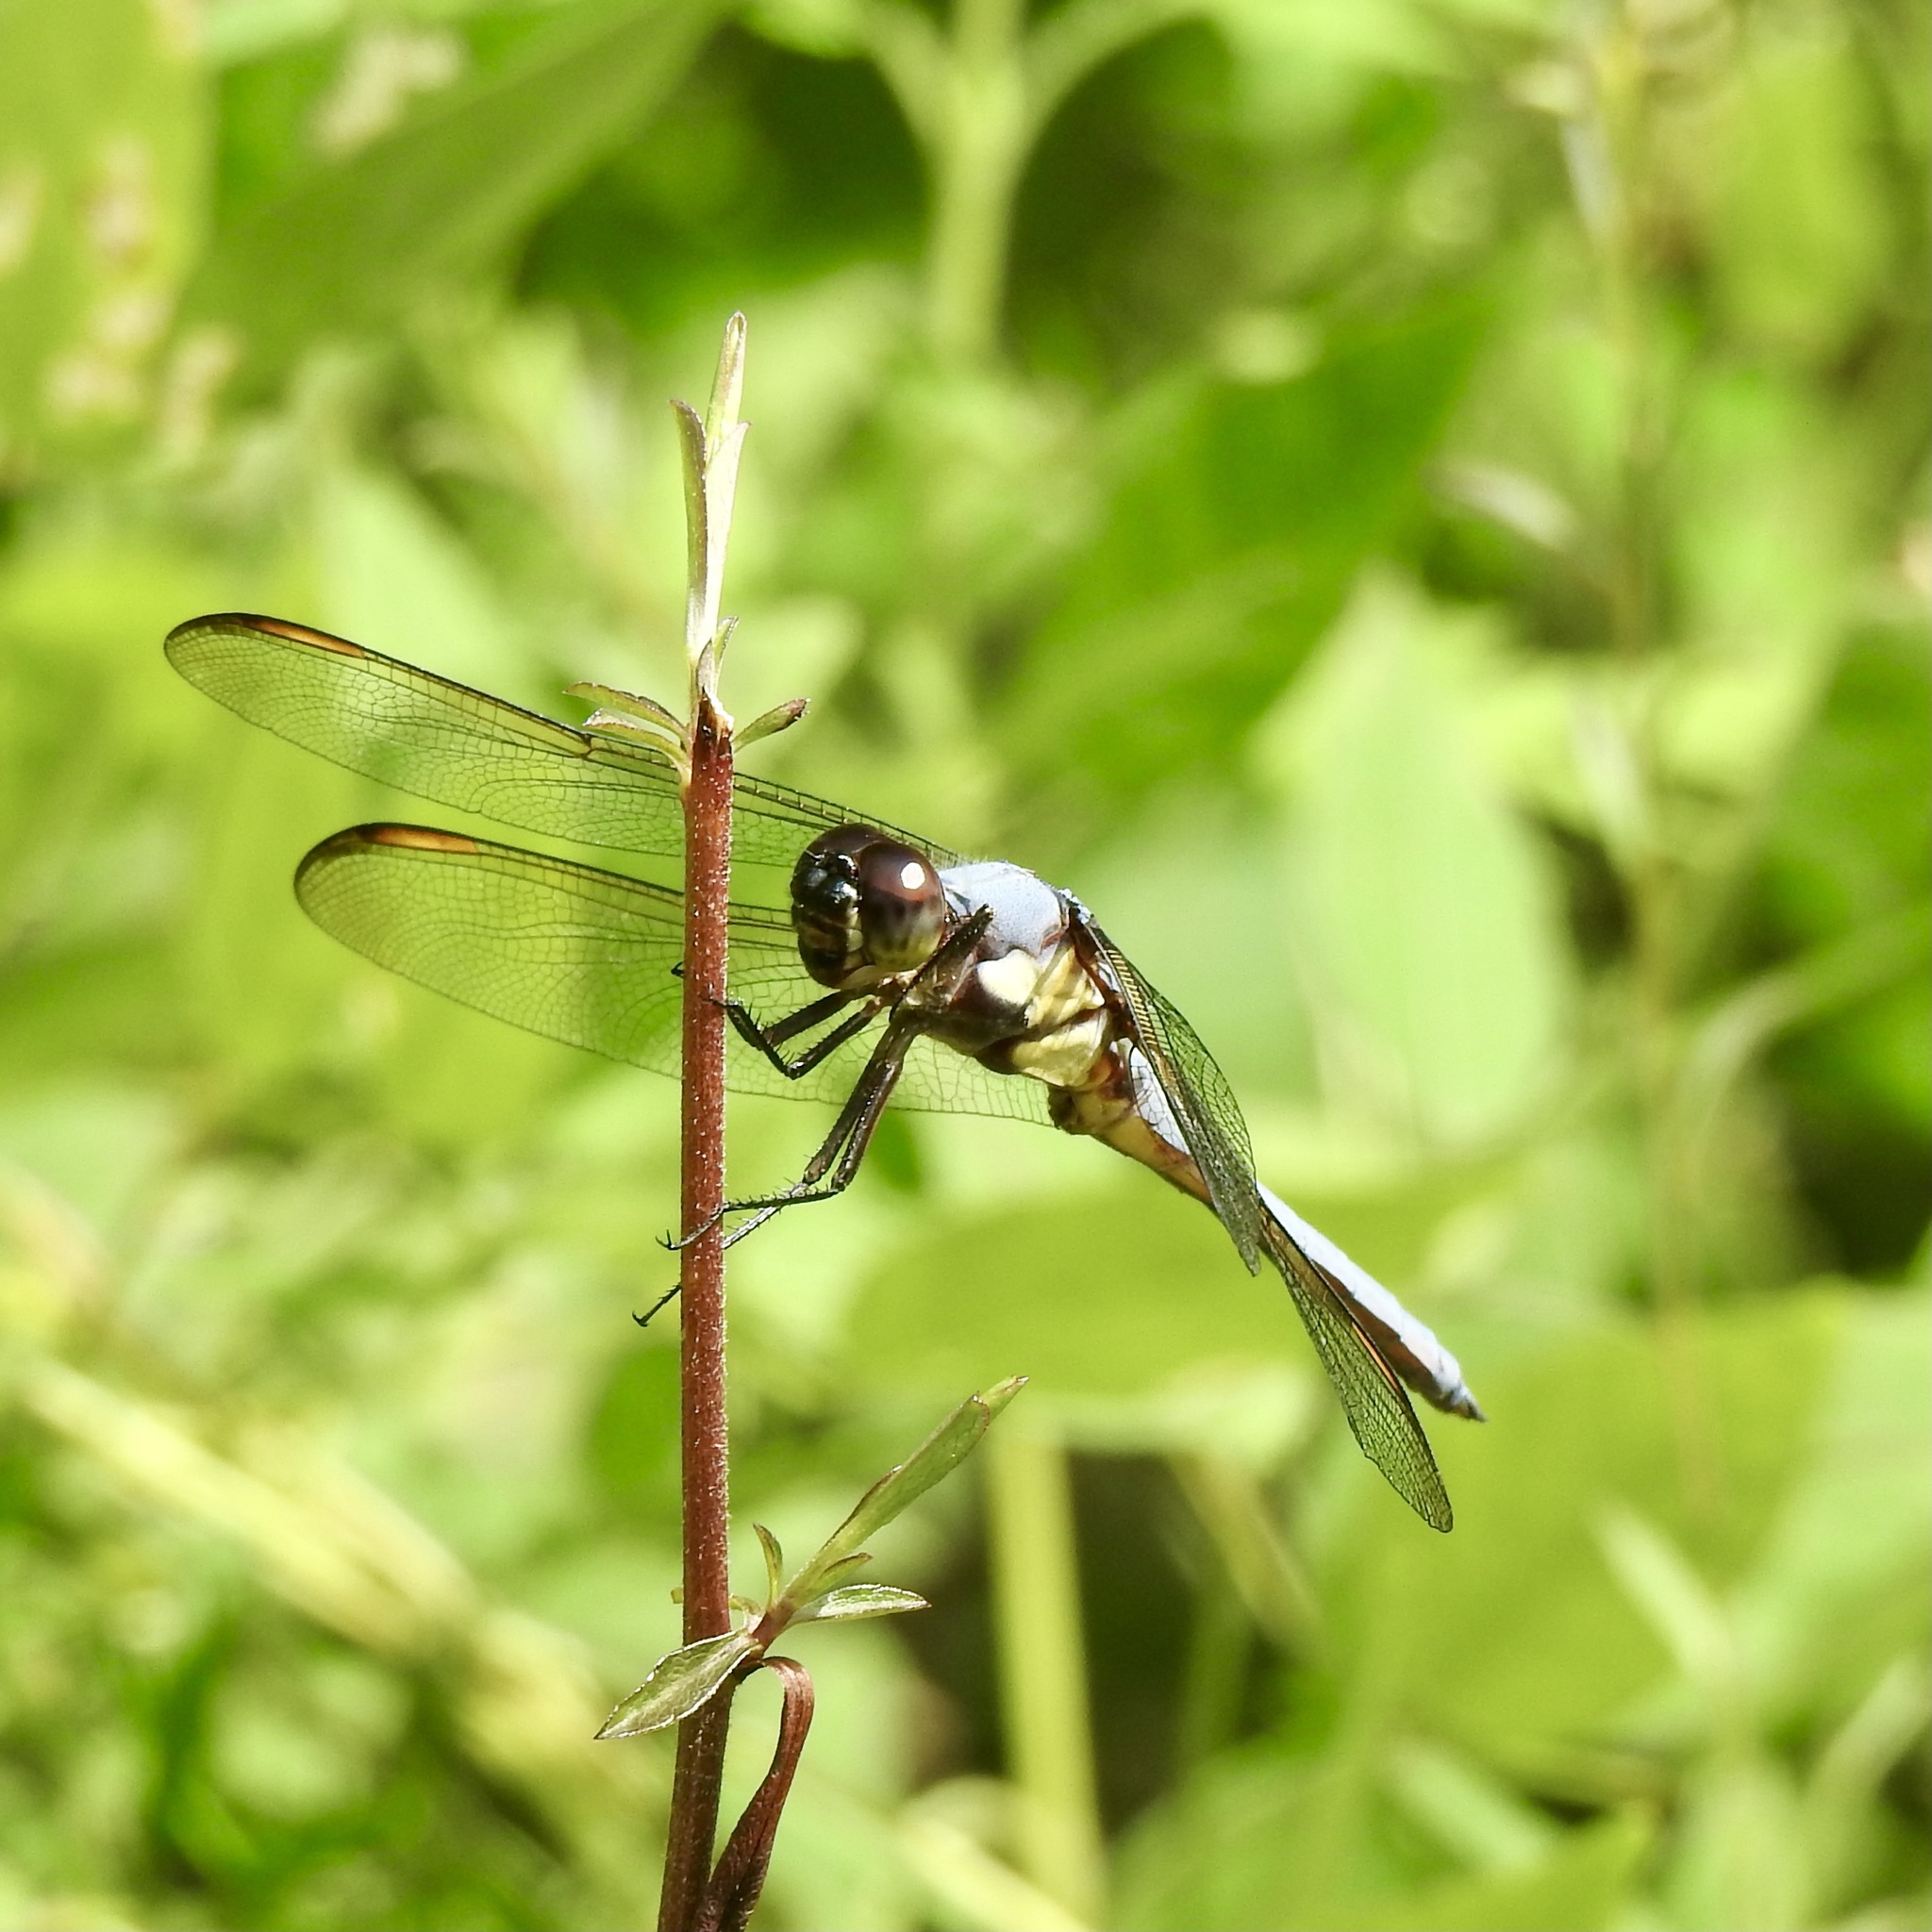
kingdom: Animalia
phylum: Arthropoda
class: Insecta
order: Odonata
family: Libellulidae
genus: Libellula
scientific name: Libellula flavida
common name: Yellow-sided skimmer
